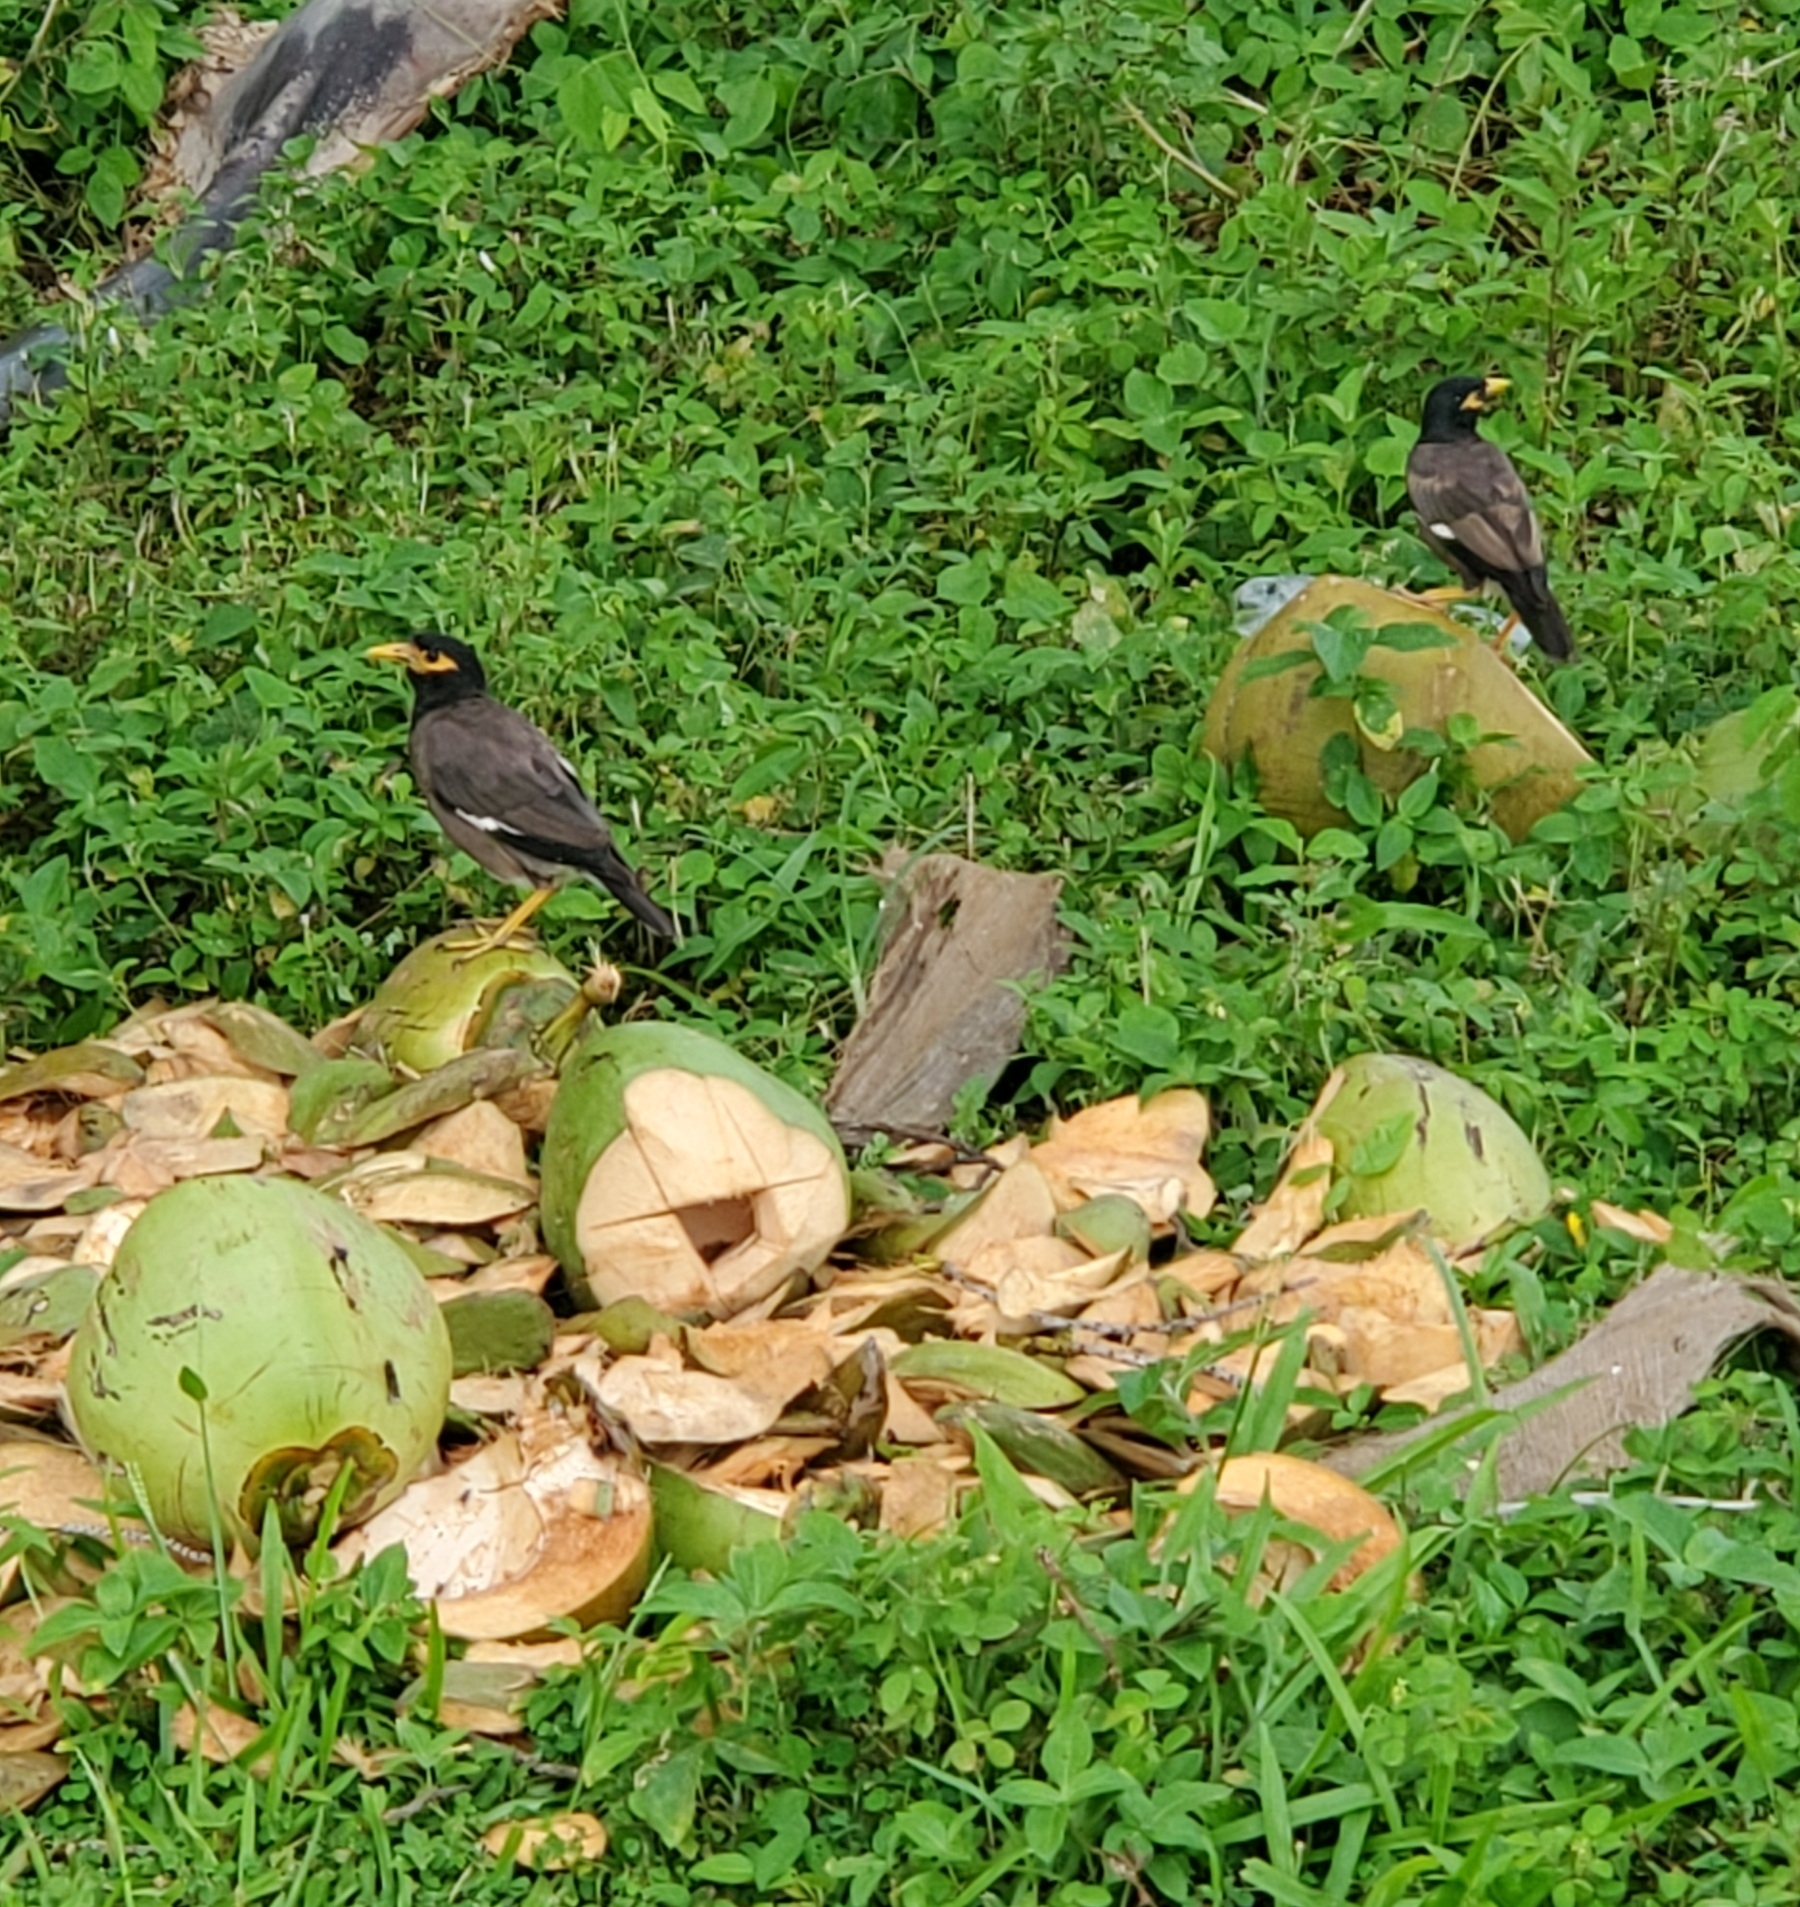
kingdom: Animalia
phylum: Chordata
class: Aves
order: Passeriformes
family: Sturnidae
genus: Acridotheres
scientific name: Acridotheres tristis
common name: Common myna
